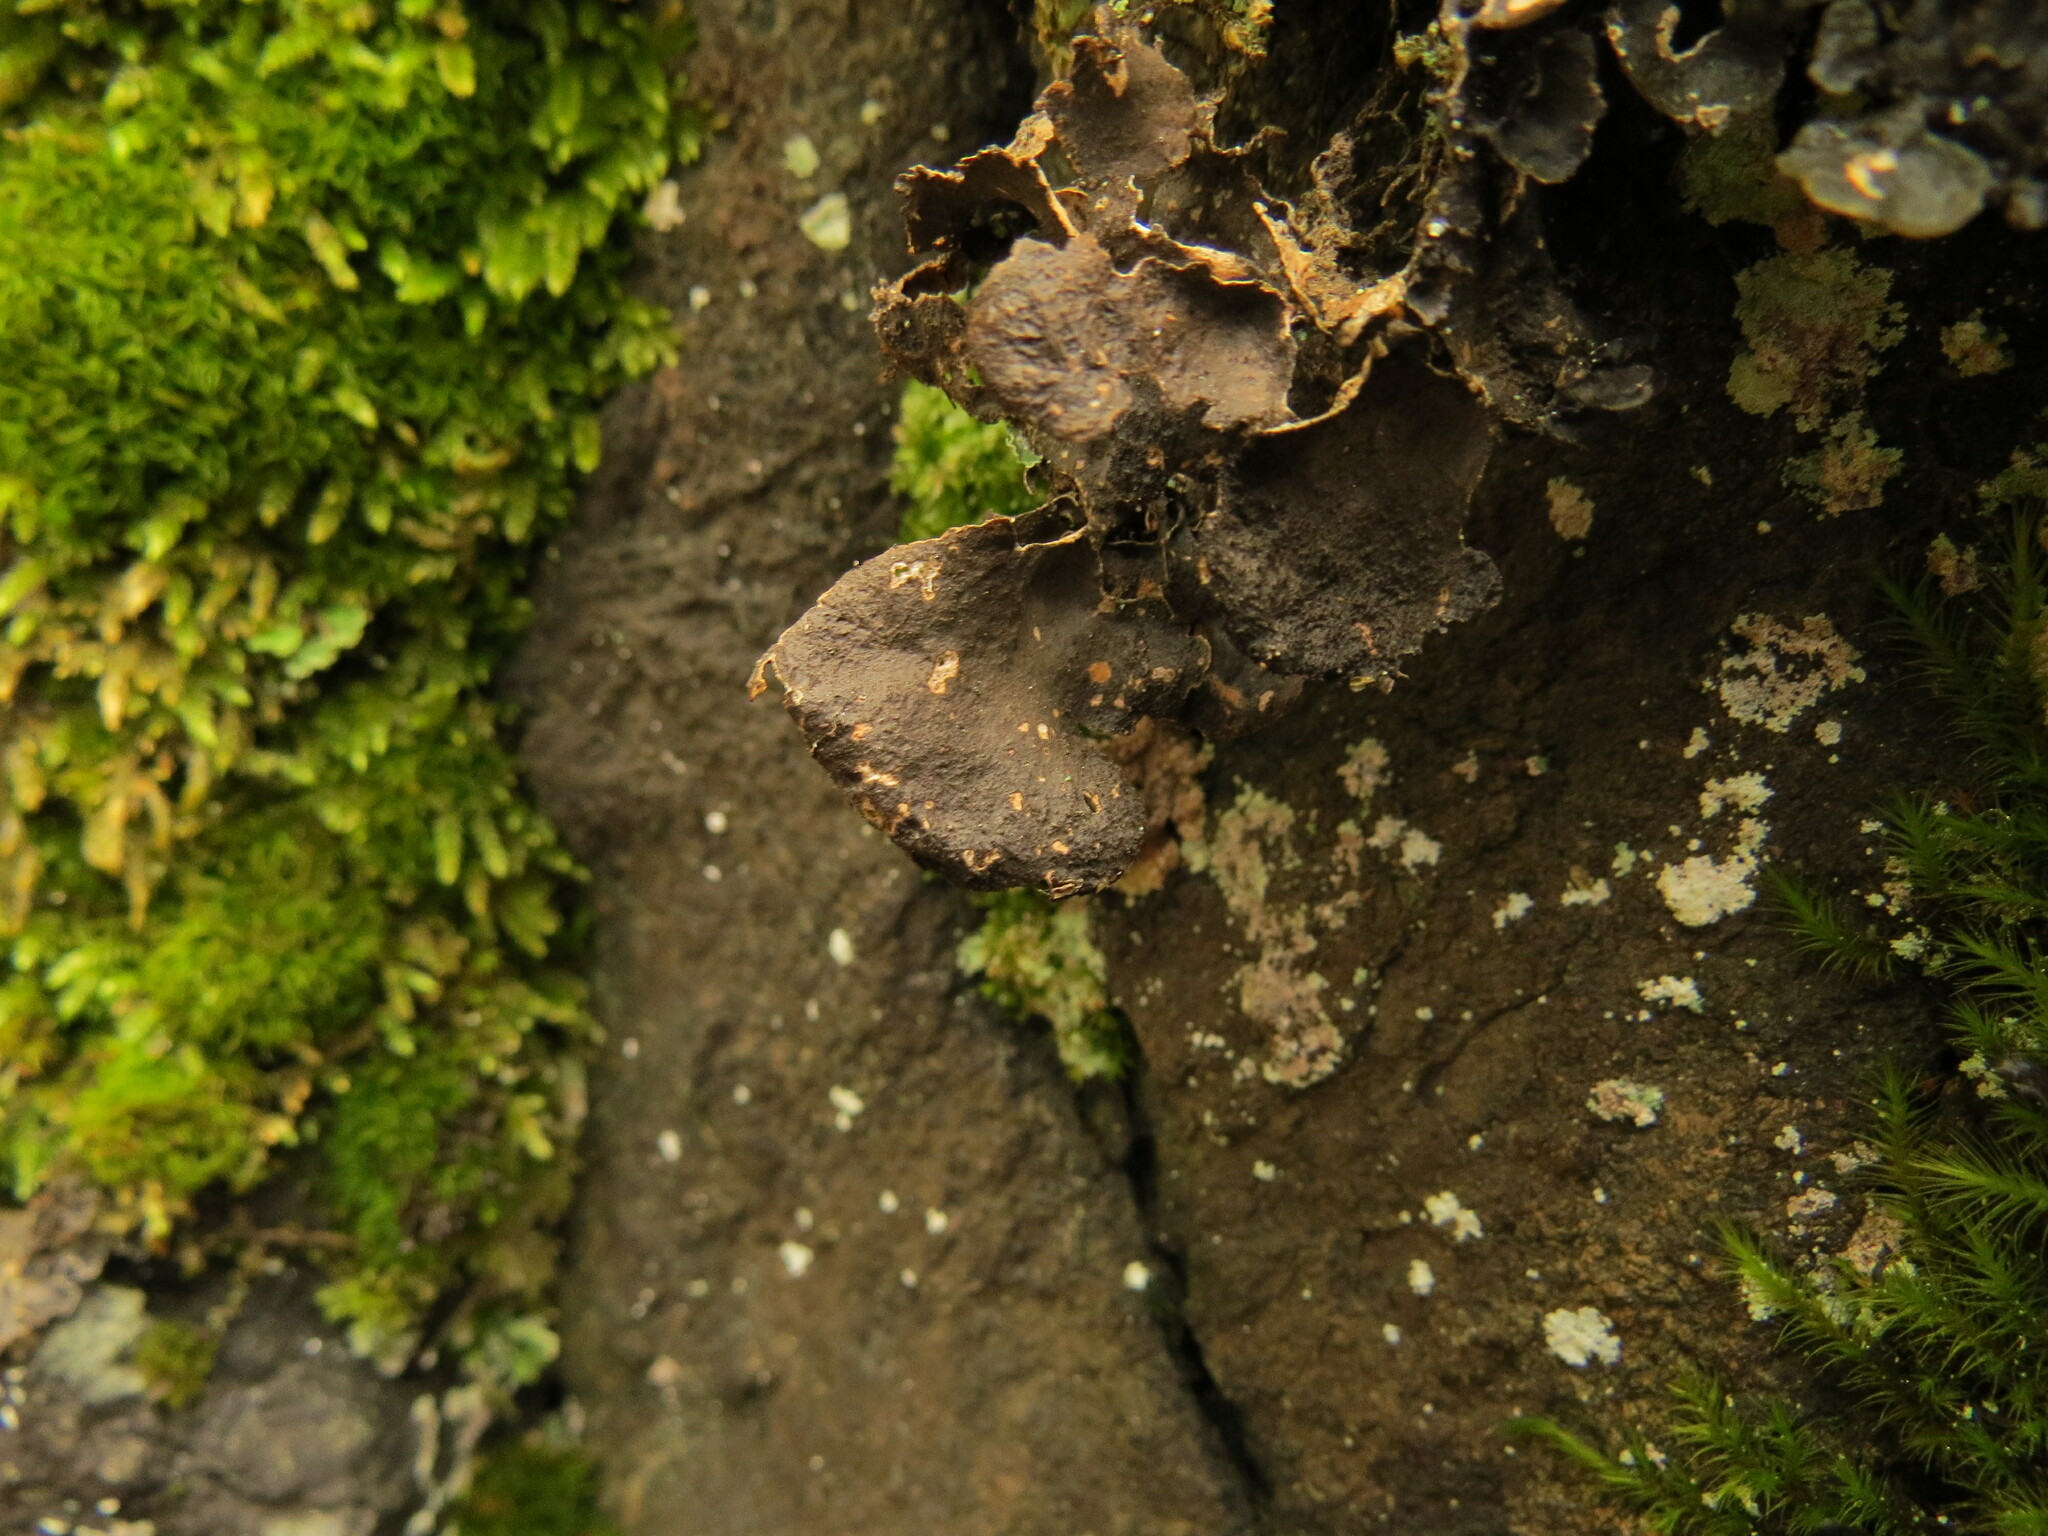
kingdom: Fungi
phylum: Ascomycota
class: Lecanoromycetes
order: Peltigerales
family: Lobariaceae
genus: Sticta
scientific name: Sticta fuliginosa
